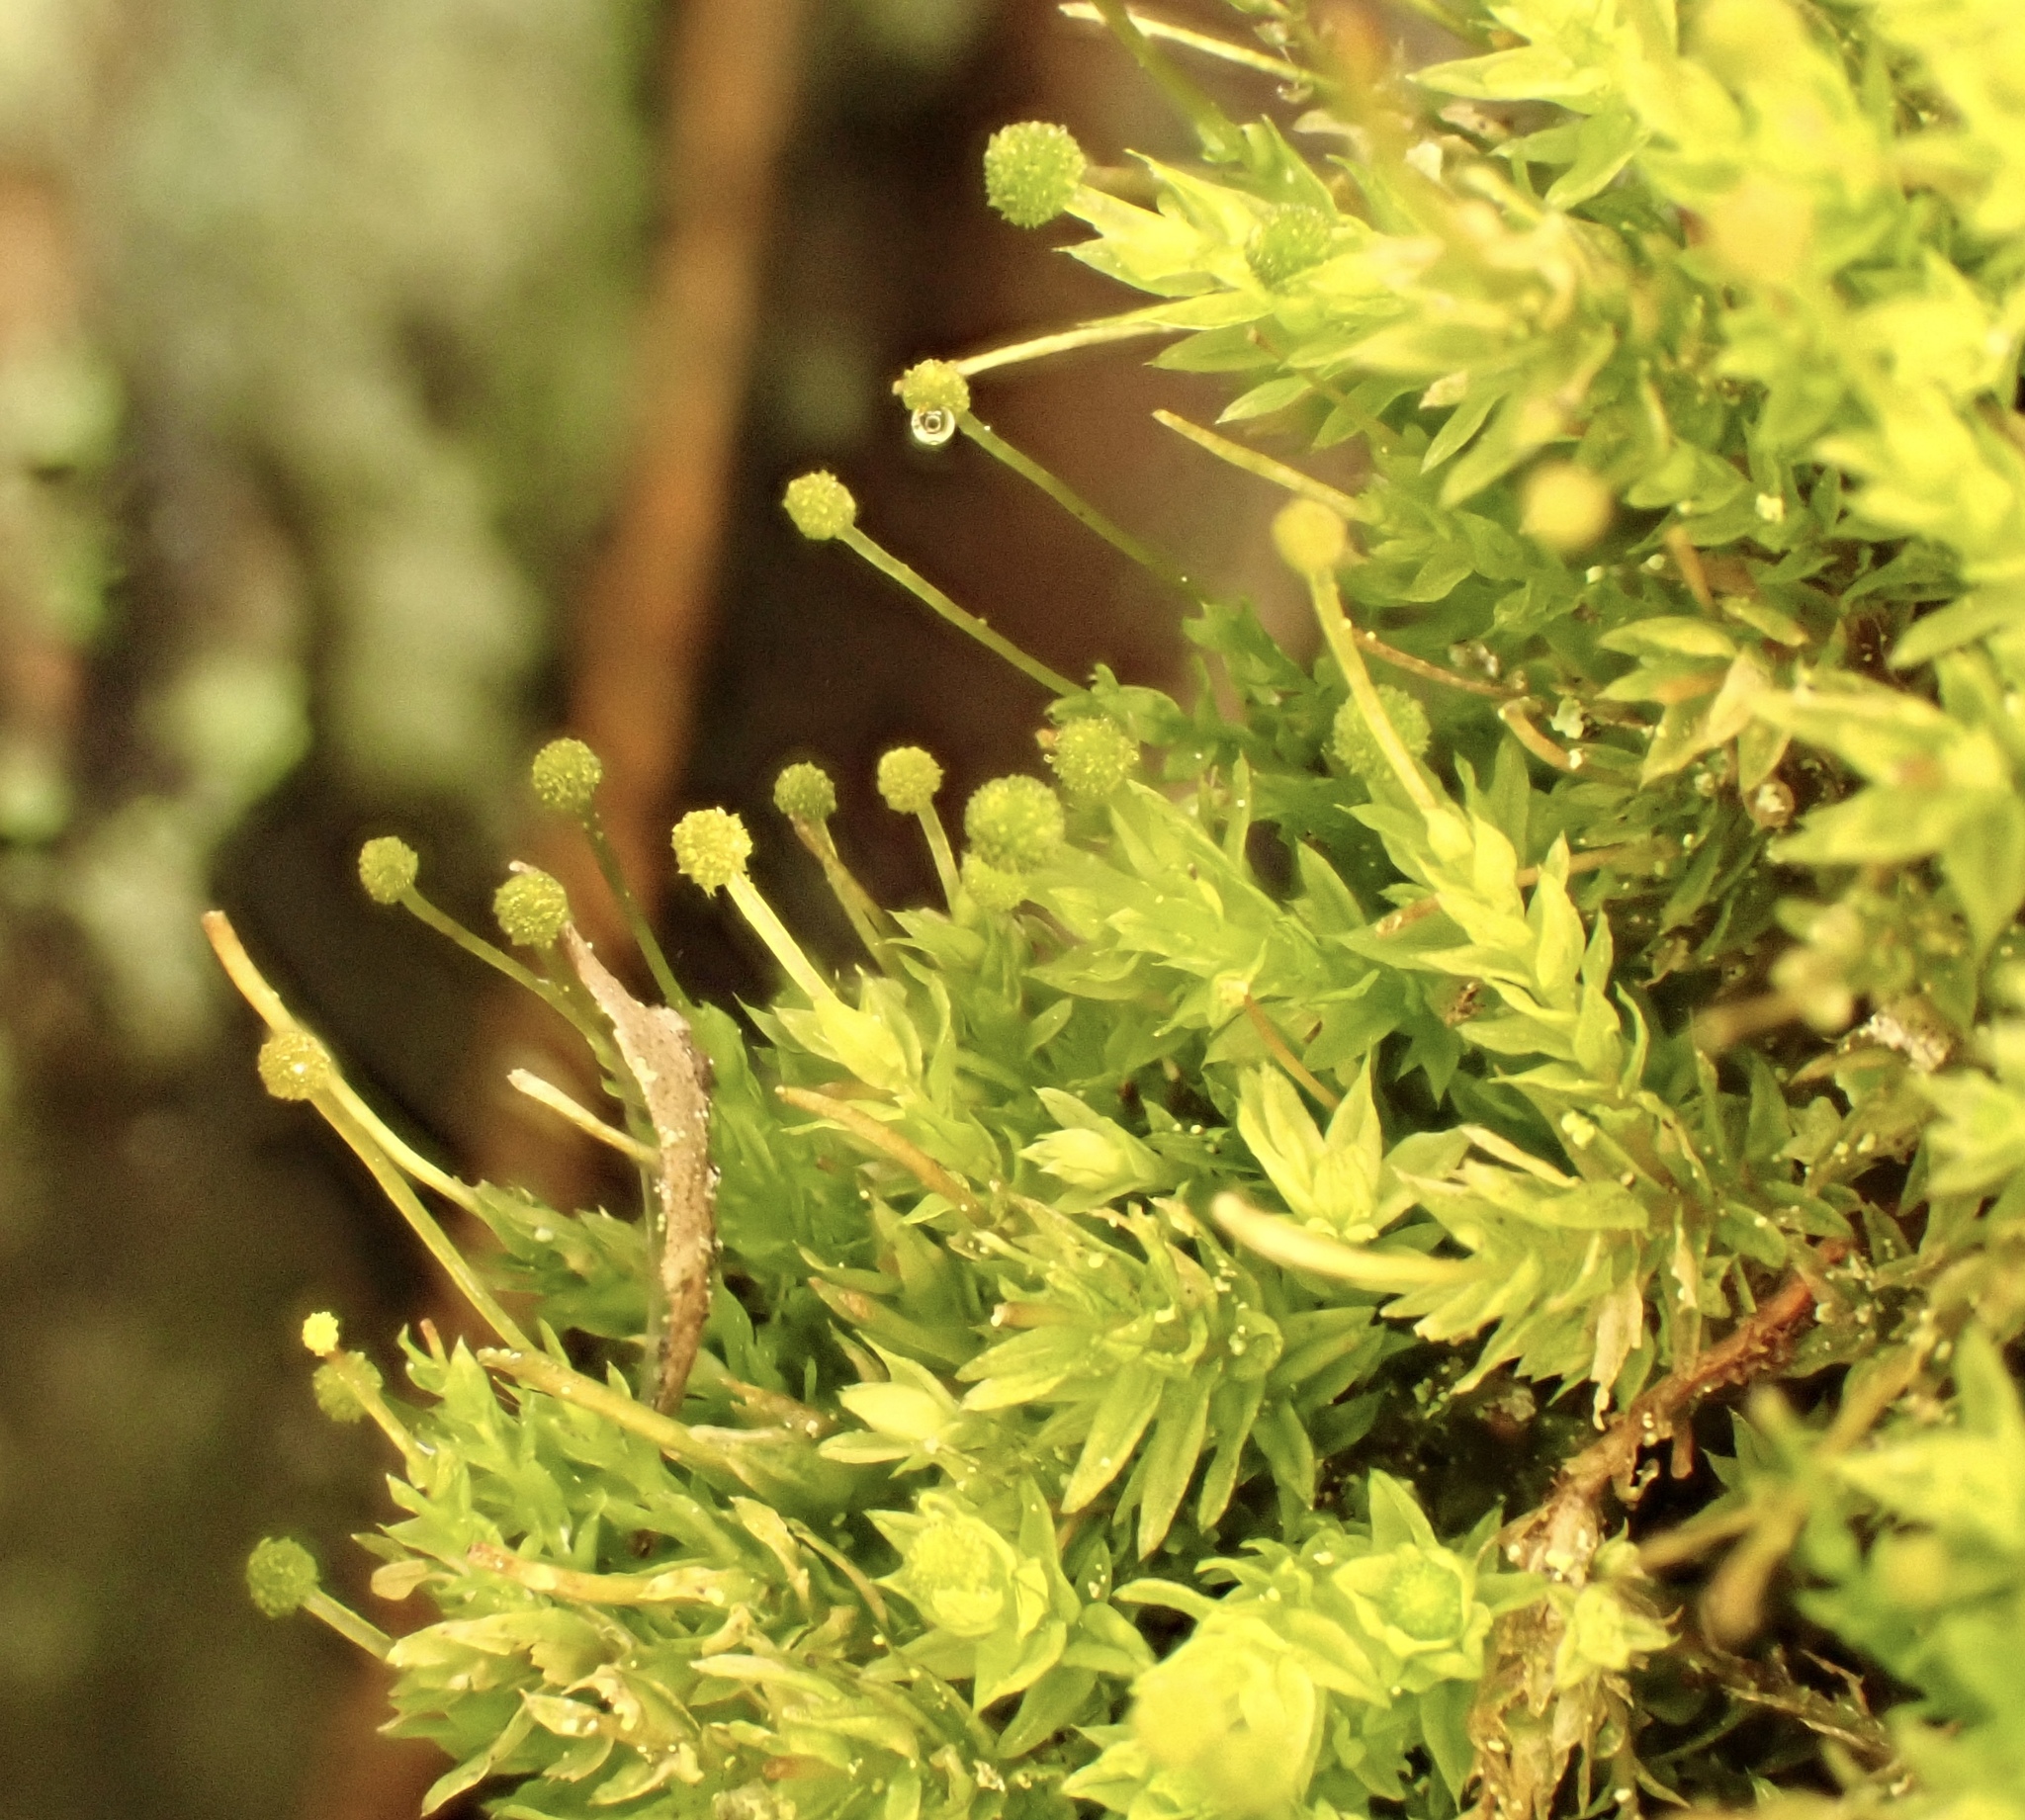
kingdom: Plantae
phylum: Bryophyta
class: Bryopsida
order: Aulacomniales
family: Aulacomniaceae
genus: Aulacomnium
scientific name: Aulacomnium androgynum
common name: Little groove moss
